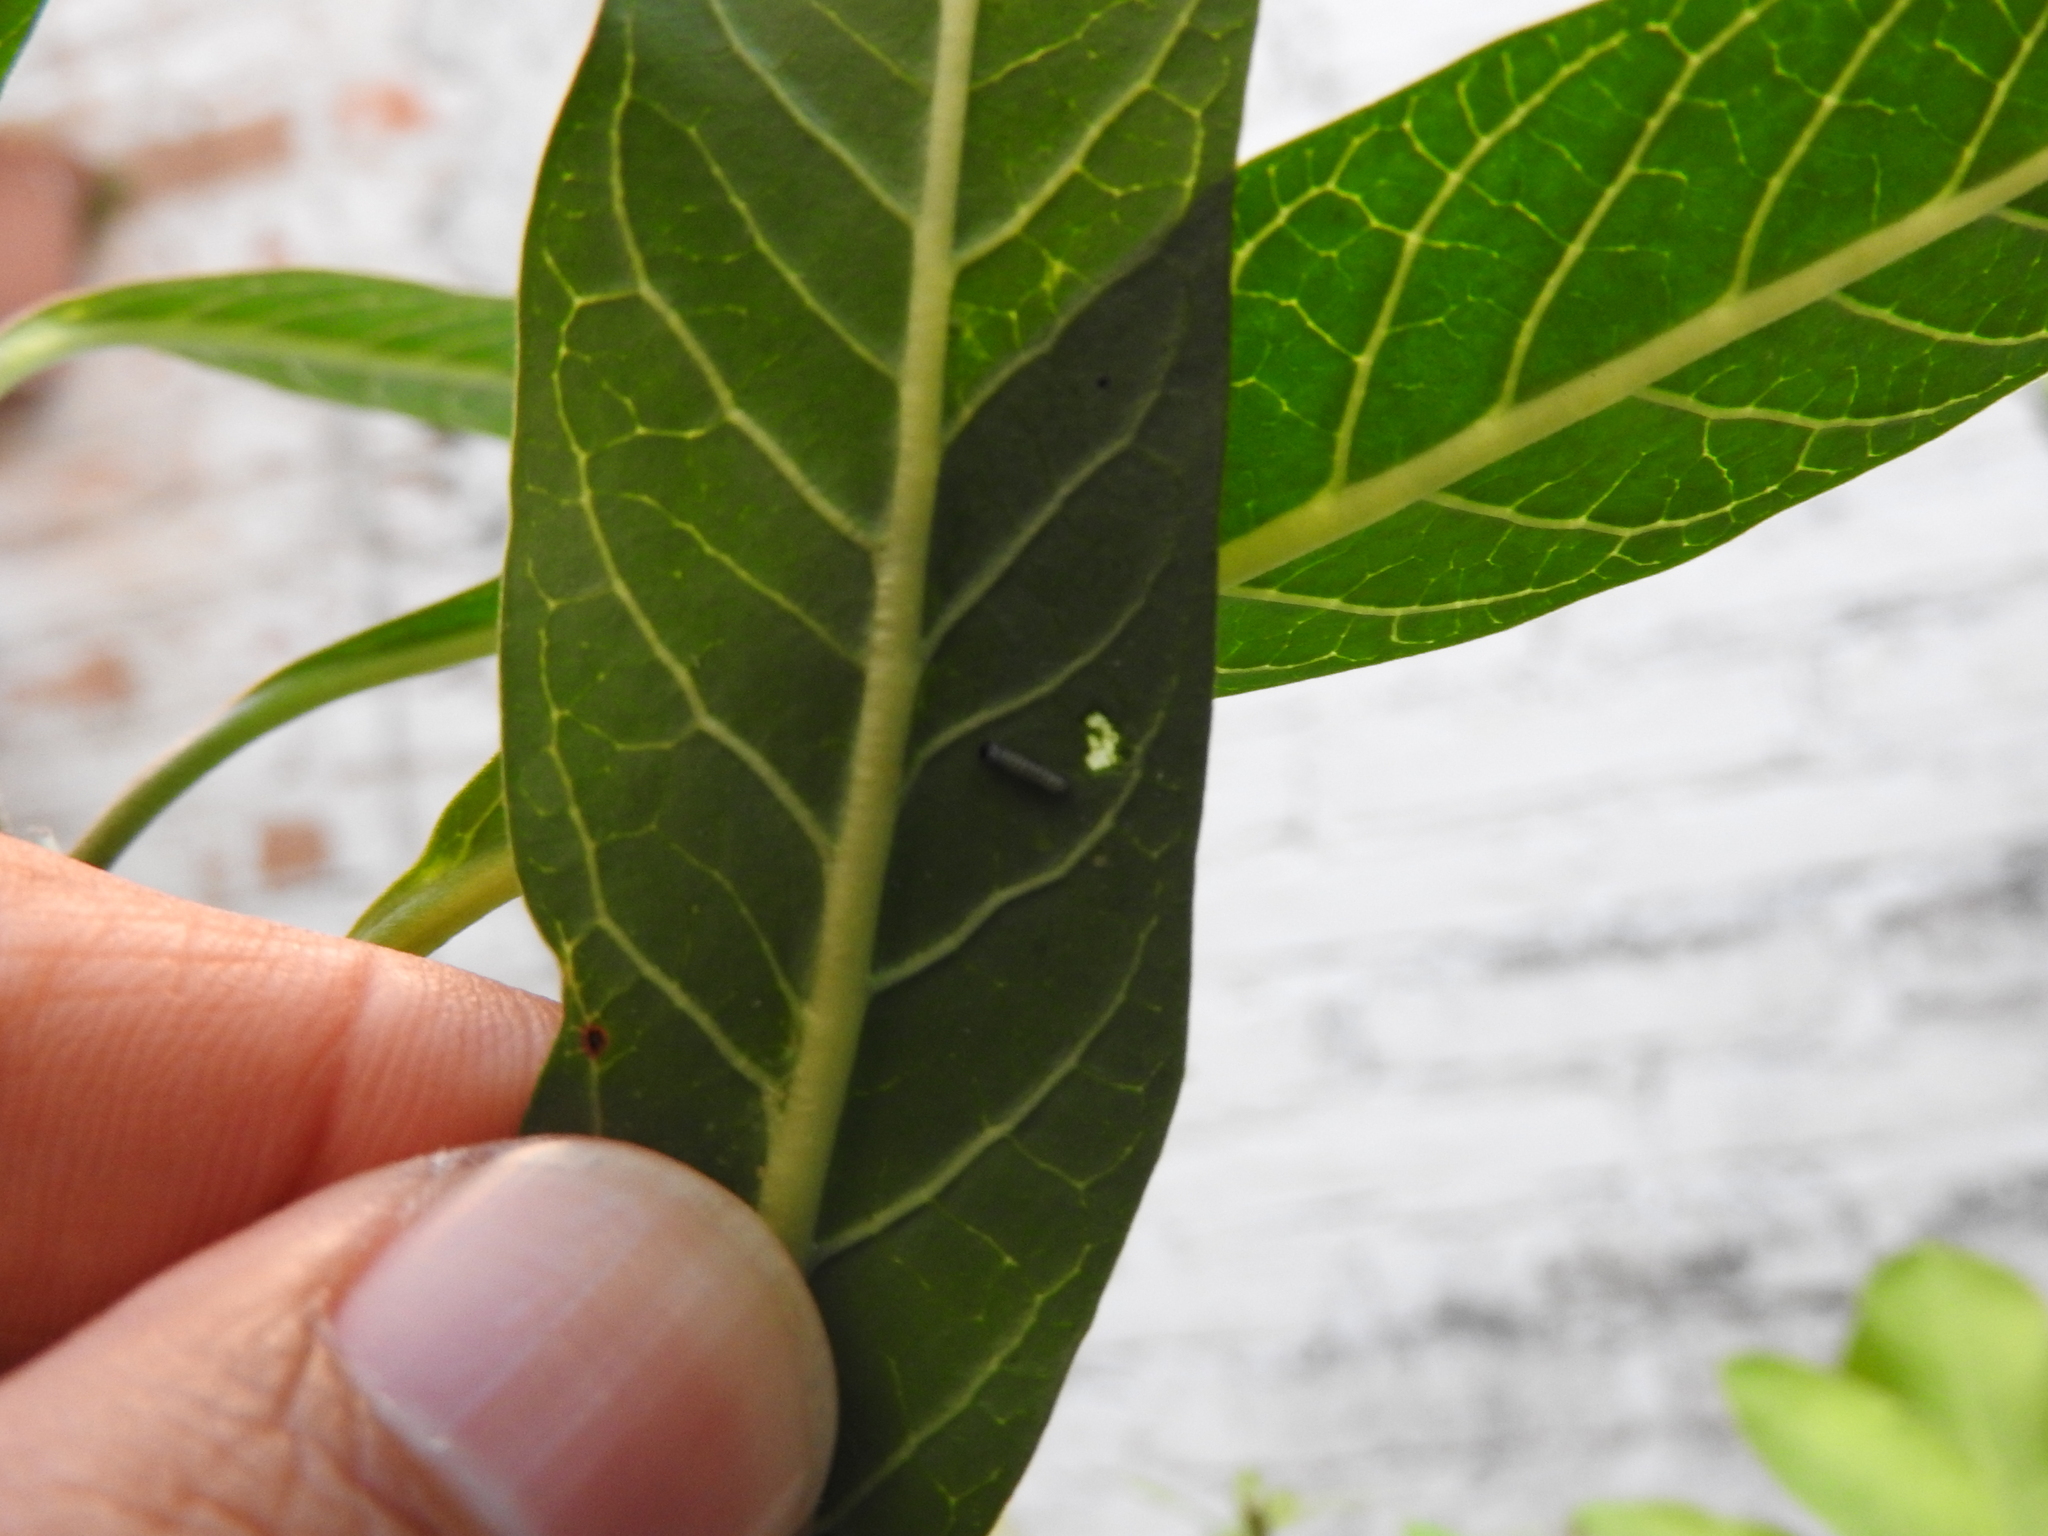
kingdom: Animalia
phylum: Arthropoda
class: Insecta
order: Lepidoptera
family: Nymphalidae
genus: Danaus
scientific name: Danaus plexippus
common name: Monarch
